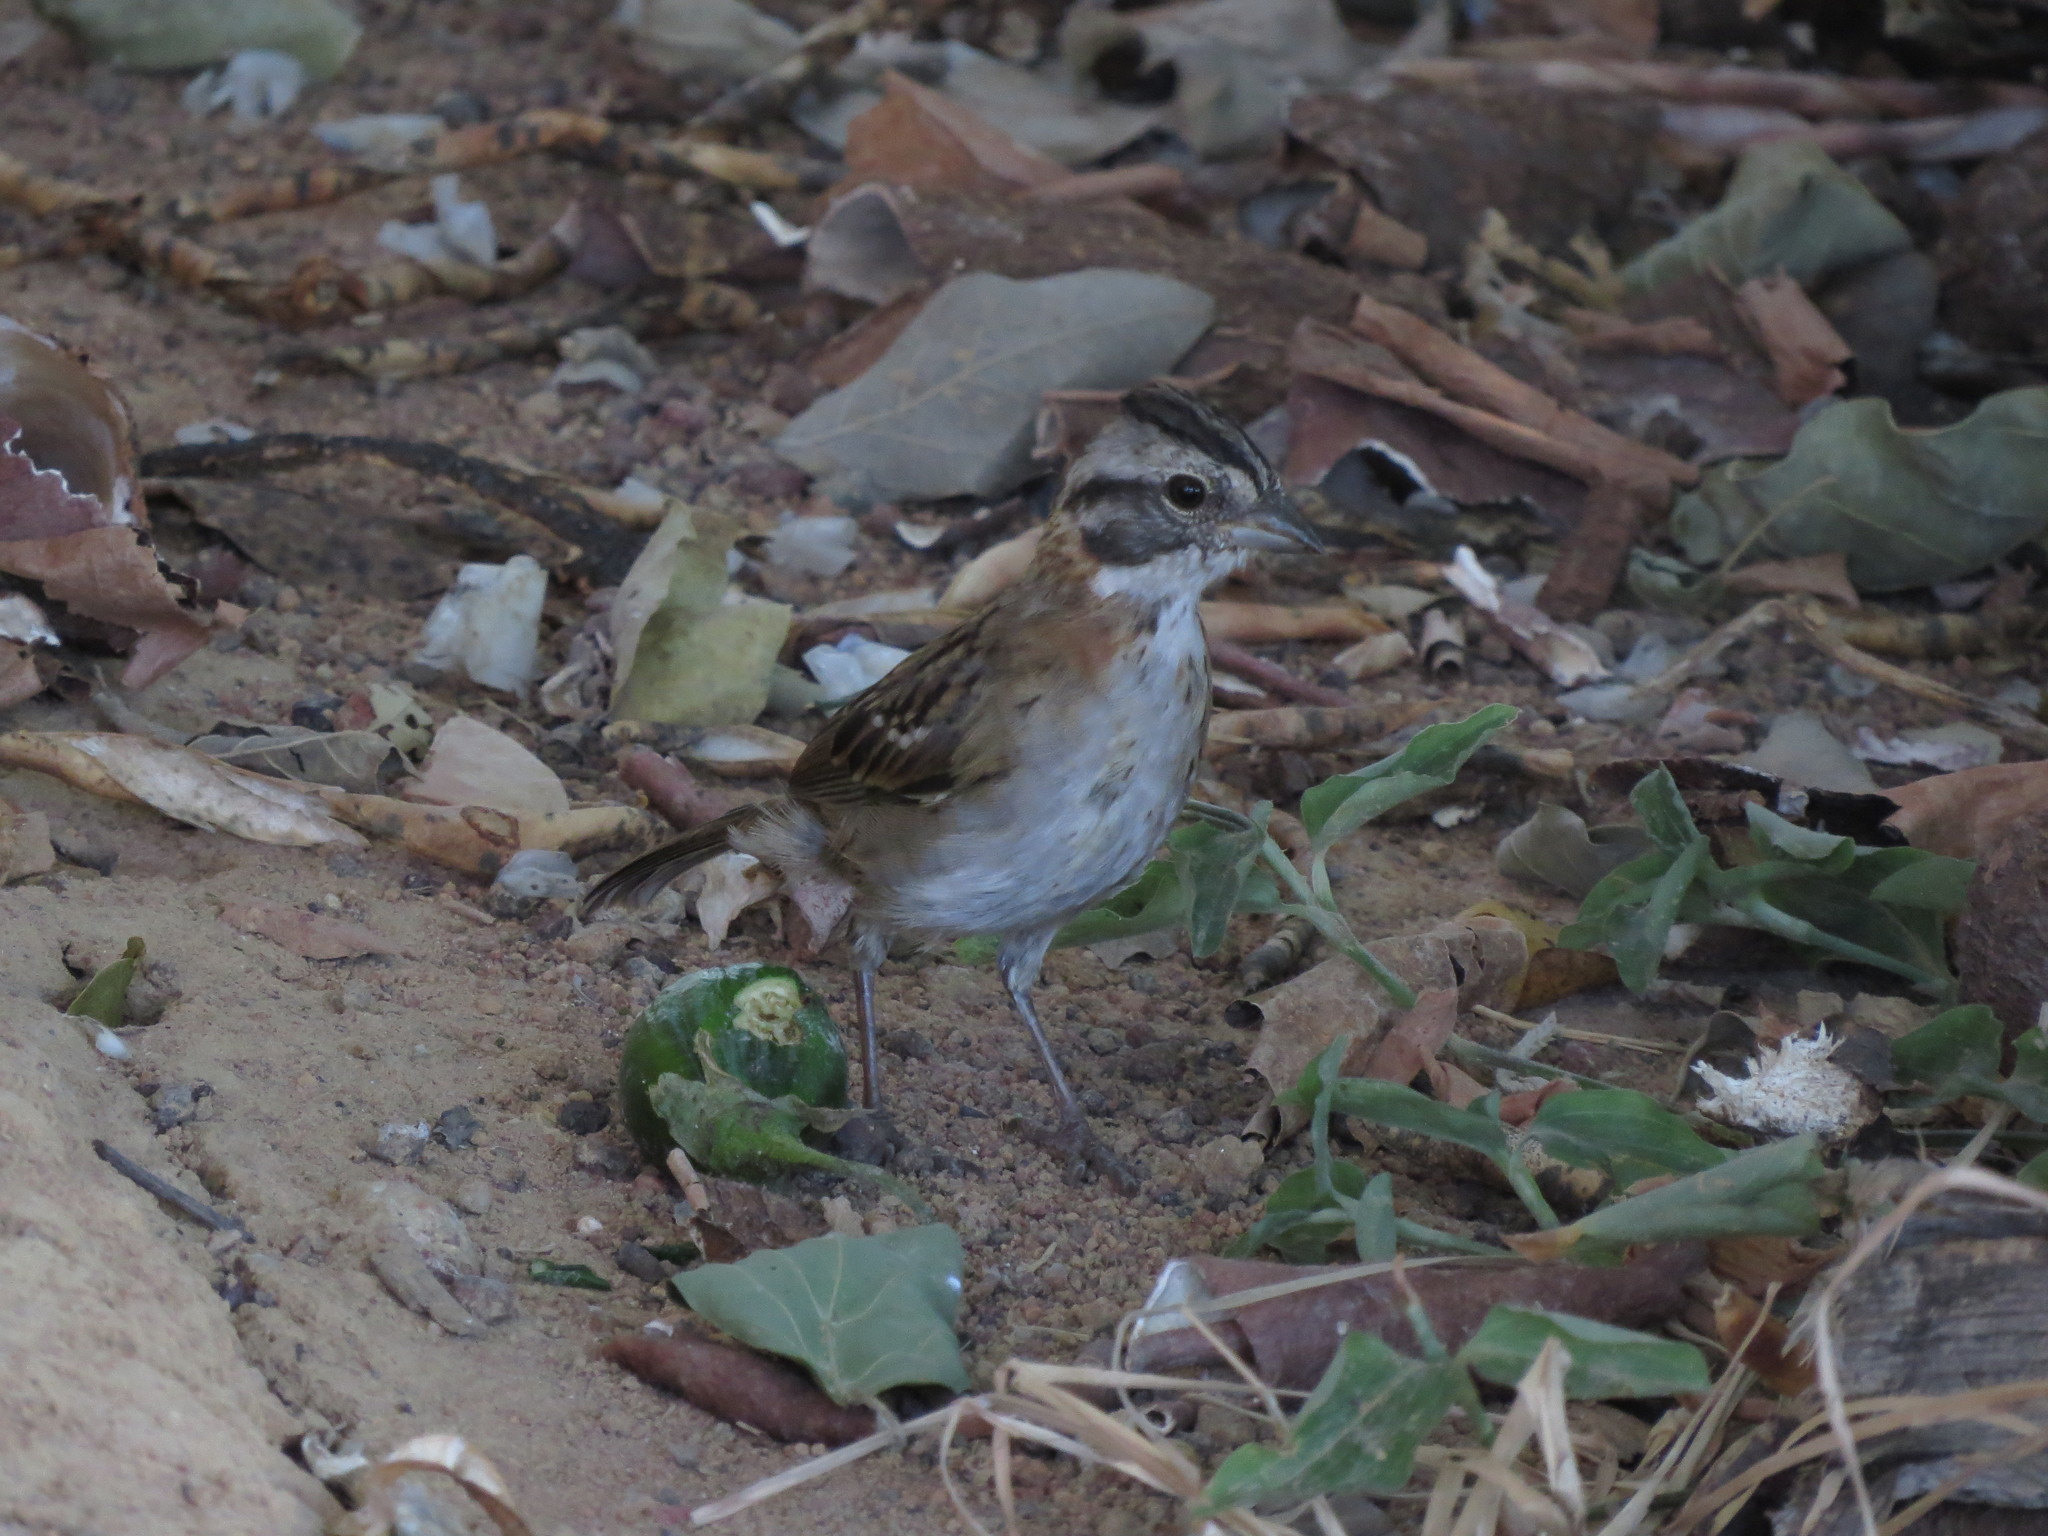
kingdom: Animalia
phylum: Chordata
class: Aves
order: Passeriformes
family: Passerellidae
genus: Zonotrichia
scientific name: Zonotrichia capensis
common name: Rufous-collared sparrow
